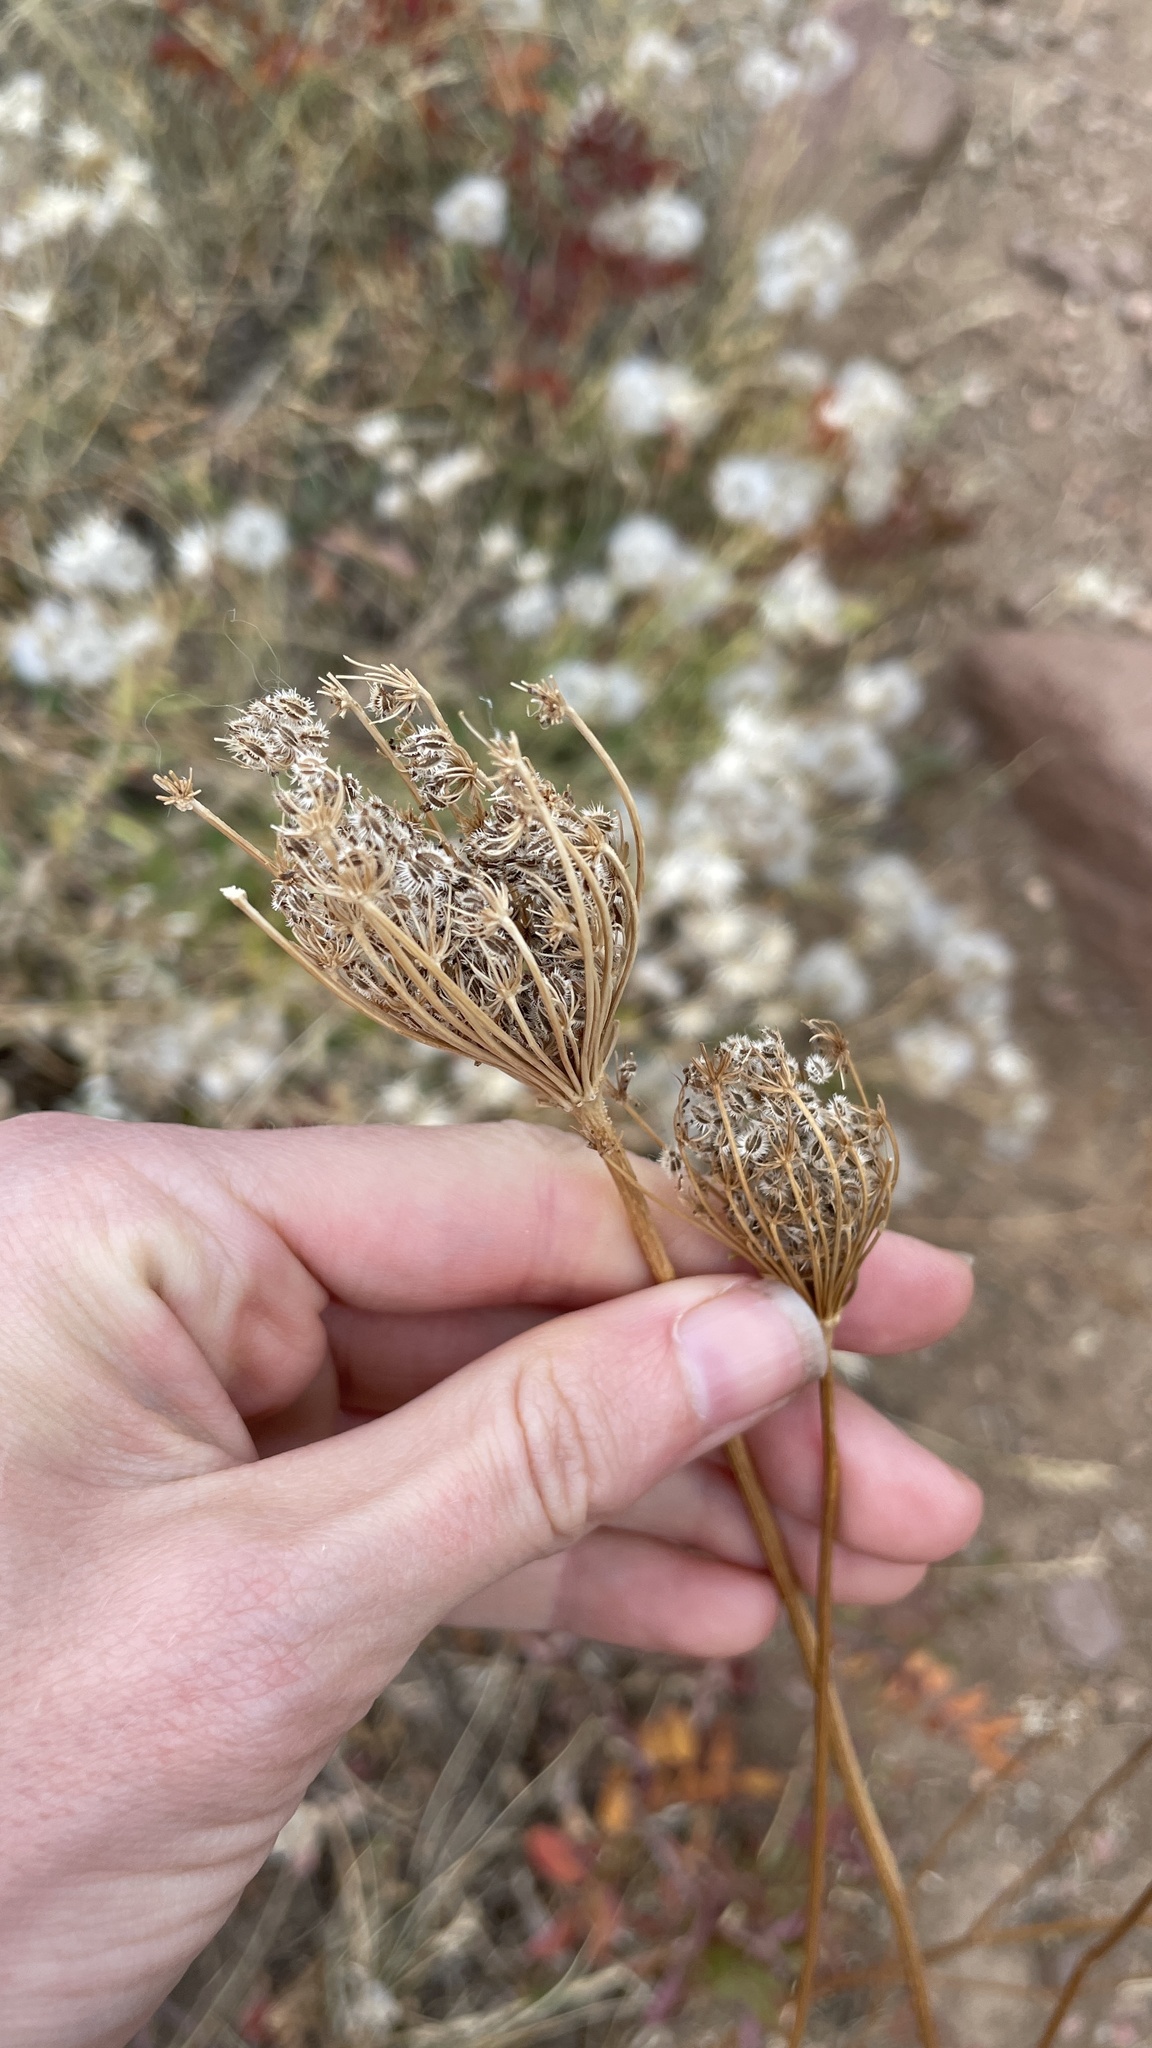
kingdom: Plantae
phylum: Tracheophyta
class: Magnoliopsida
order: Apiales
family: Apiaceae
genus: Daucus
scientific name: Daucus carota
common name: Wild carrot
